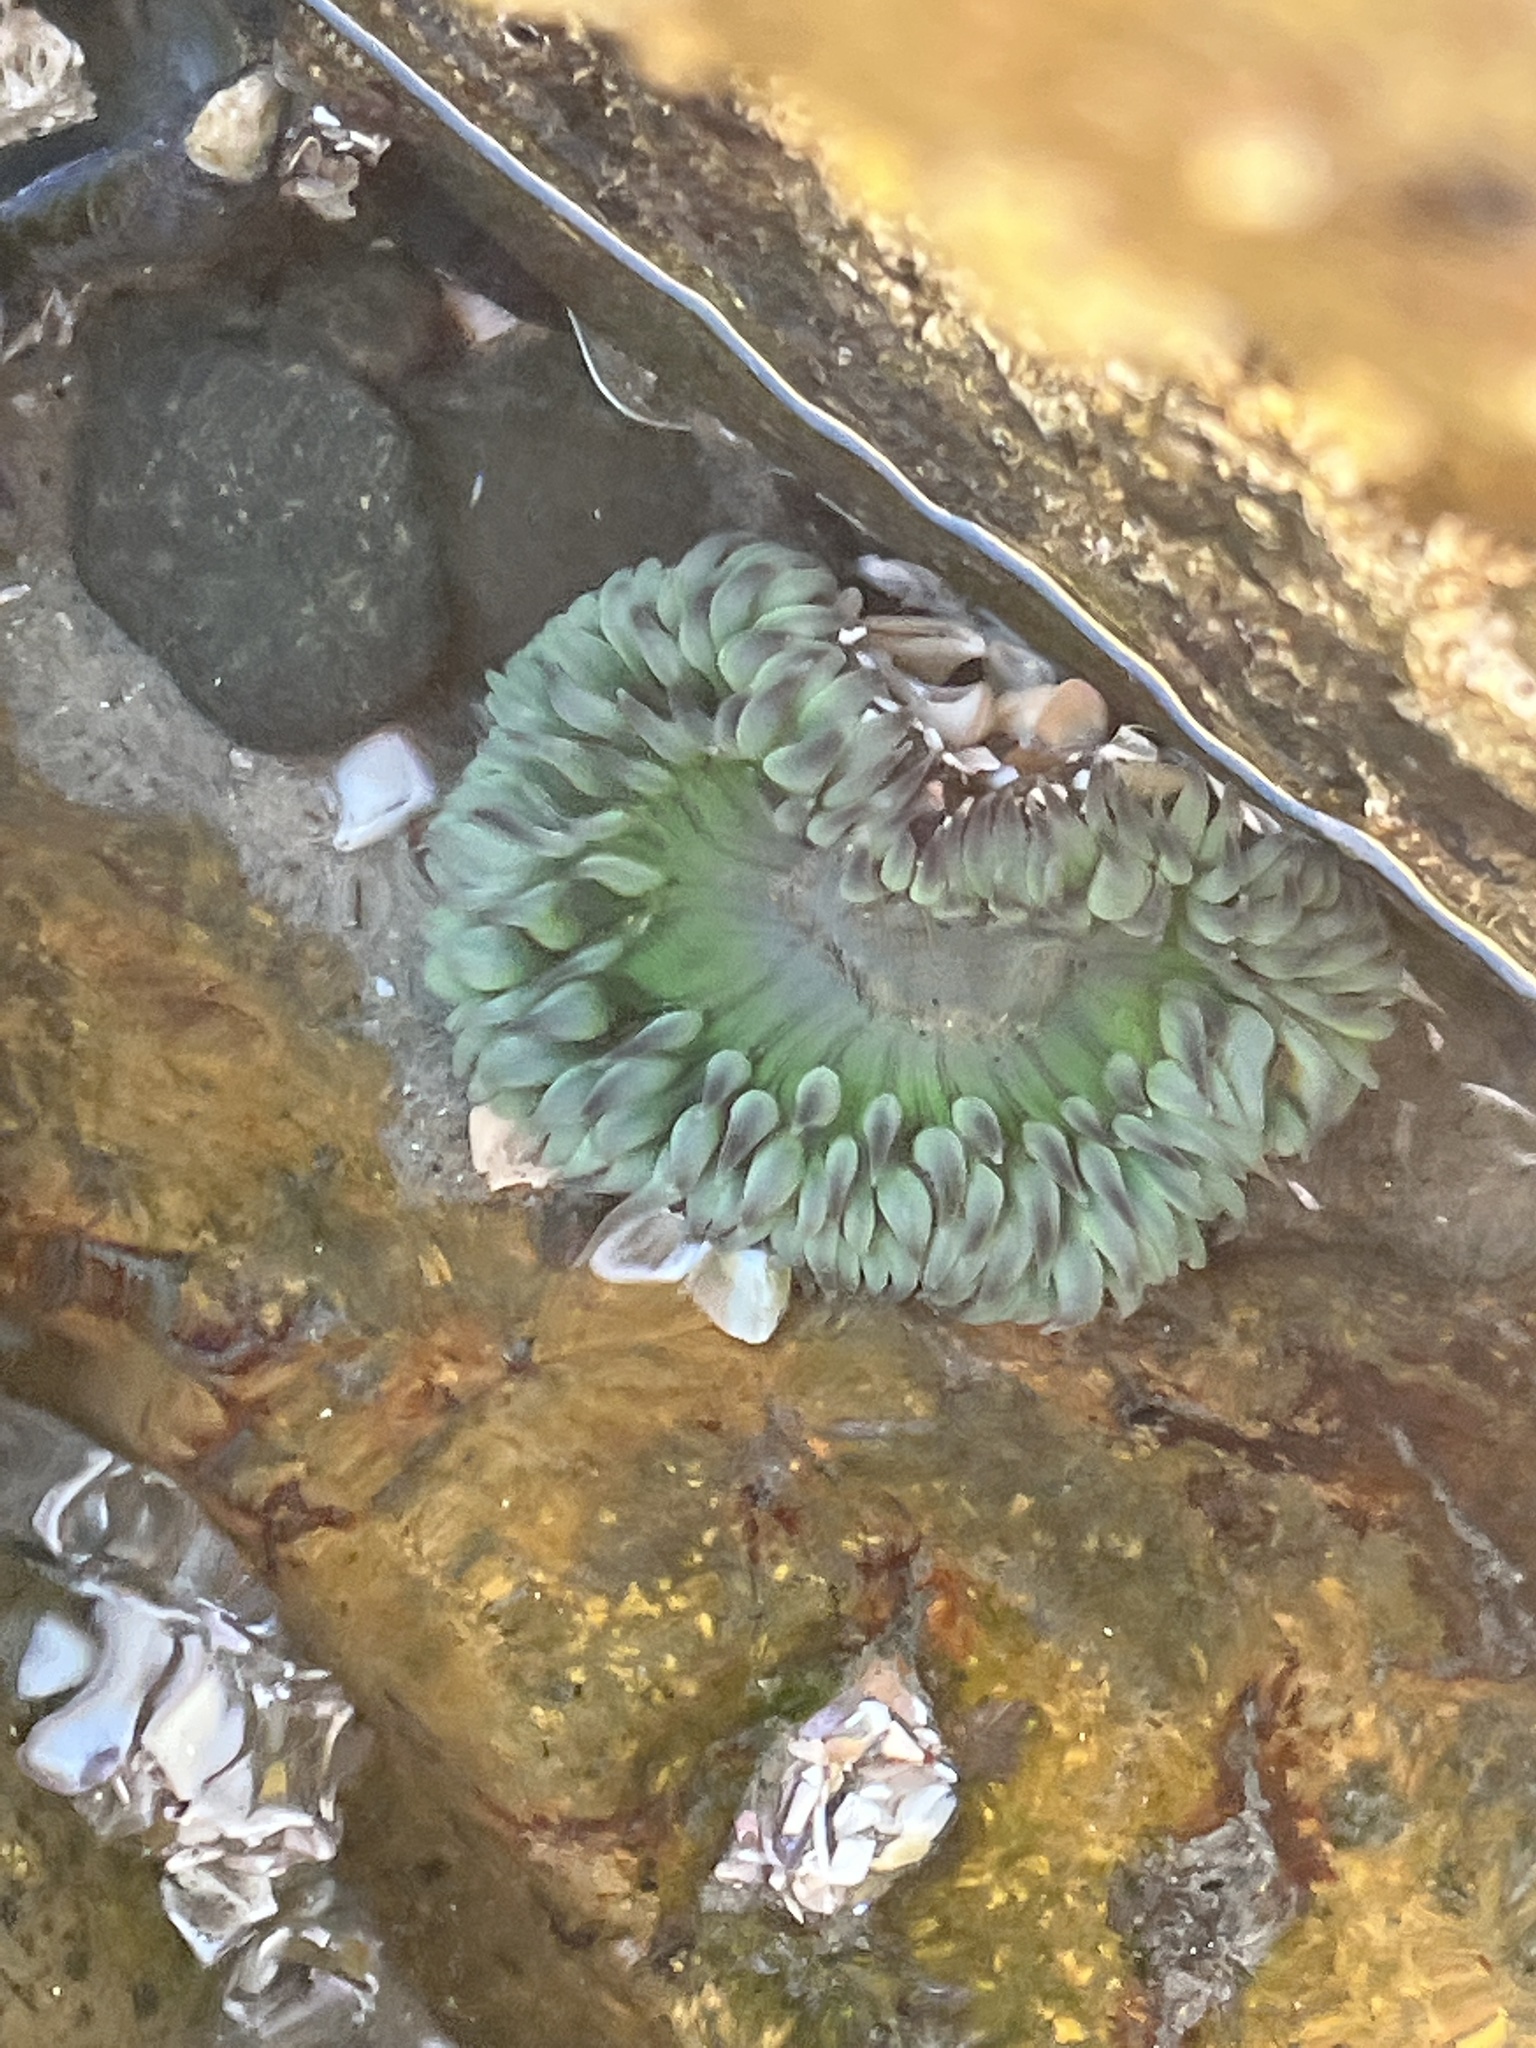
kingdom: Animalia
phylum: Cnidaria
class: Anthozoa
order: Actiniaria
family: Actiniidae
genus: Anthopleura
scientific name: Anthopleura sola
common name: Sun anemone
